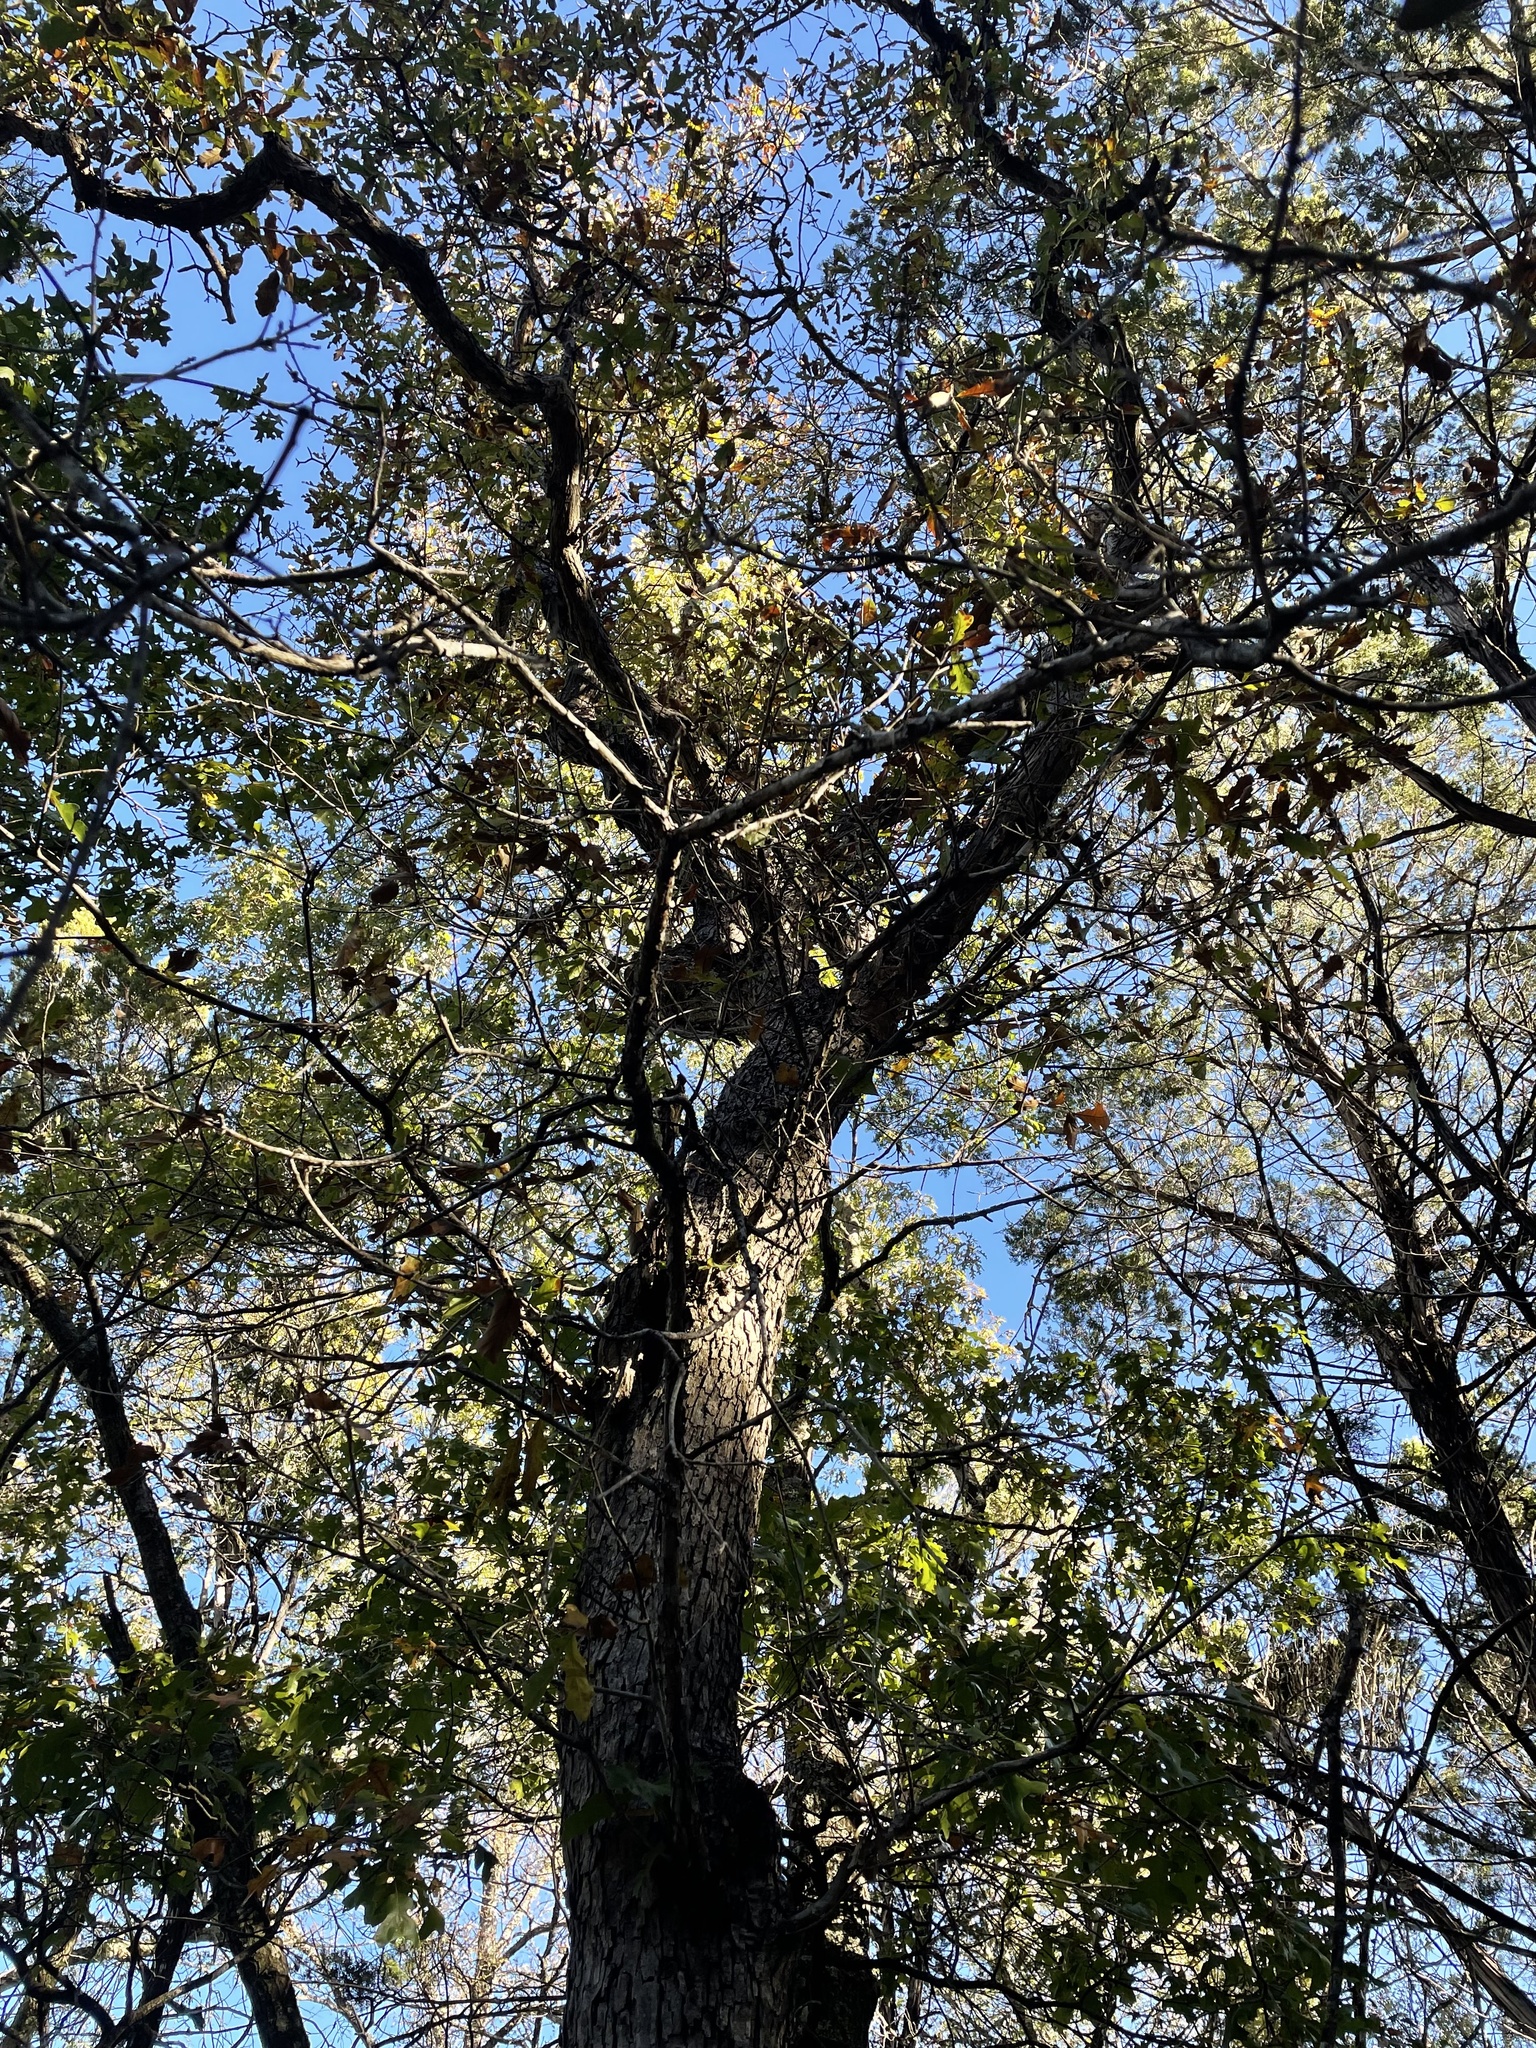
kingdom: Plantae
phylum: Tracheophyta
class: Magnoliopsida
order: Fagales
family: Fagaceae
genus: Quercus
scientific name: Quercus sinuata
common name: Durand oak
